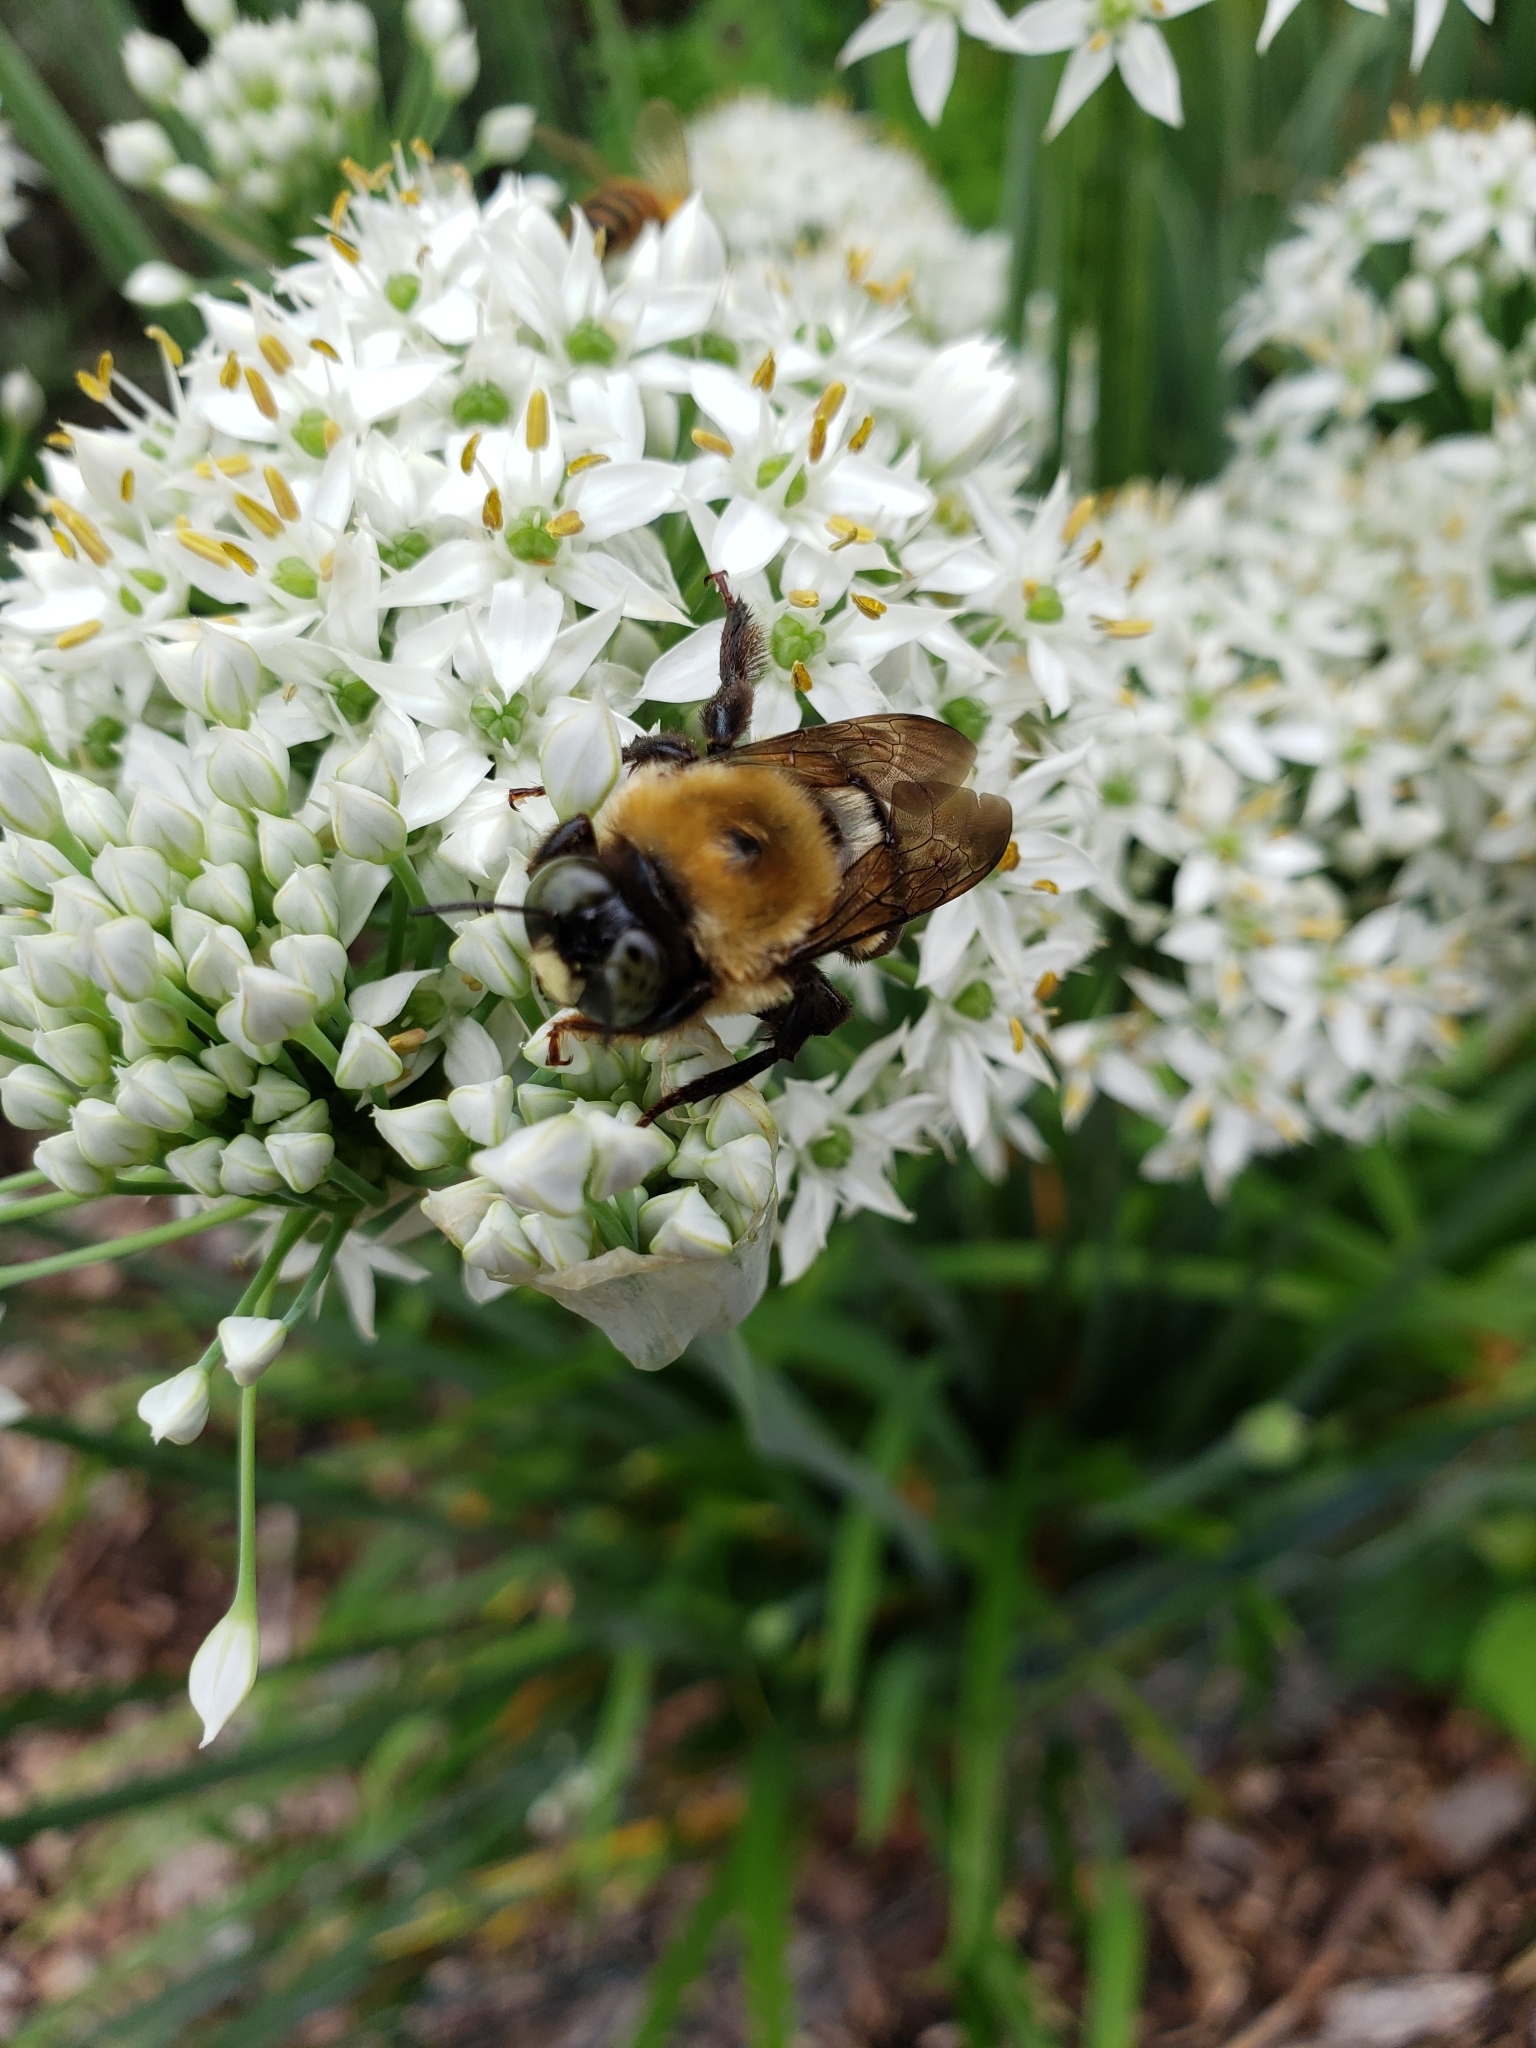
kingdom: Animalia
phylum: Arthropoda
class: Insecta
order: Hymenoptera
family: Apidae
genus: Xylocopa
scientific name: Xylocopa virginica
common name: Carpenter bee
